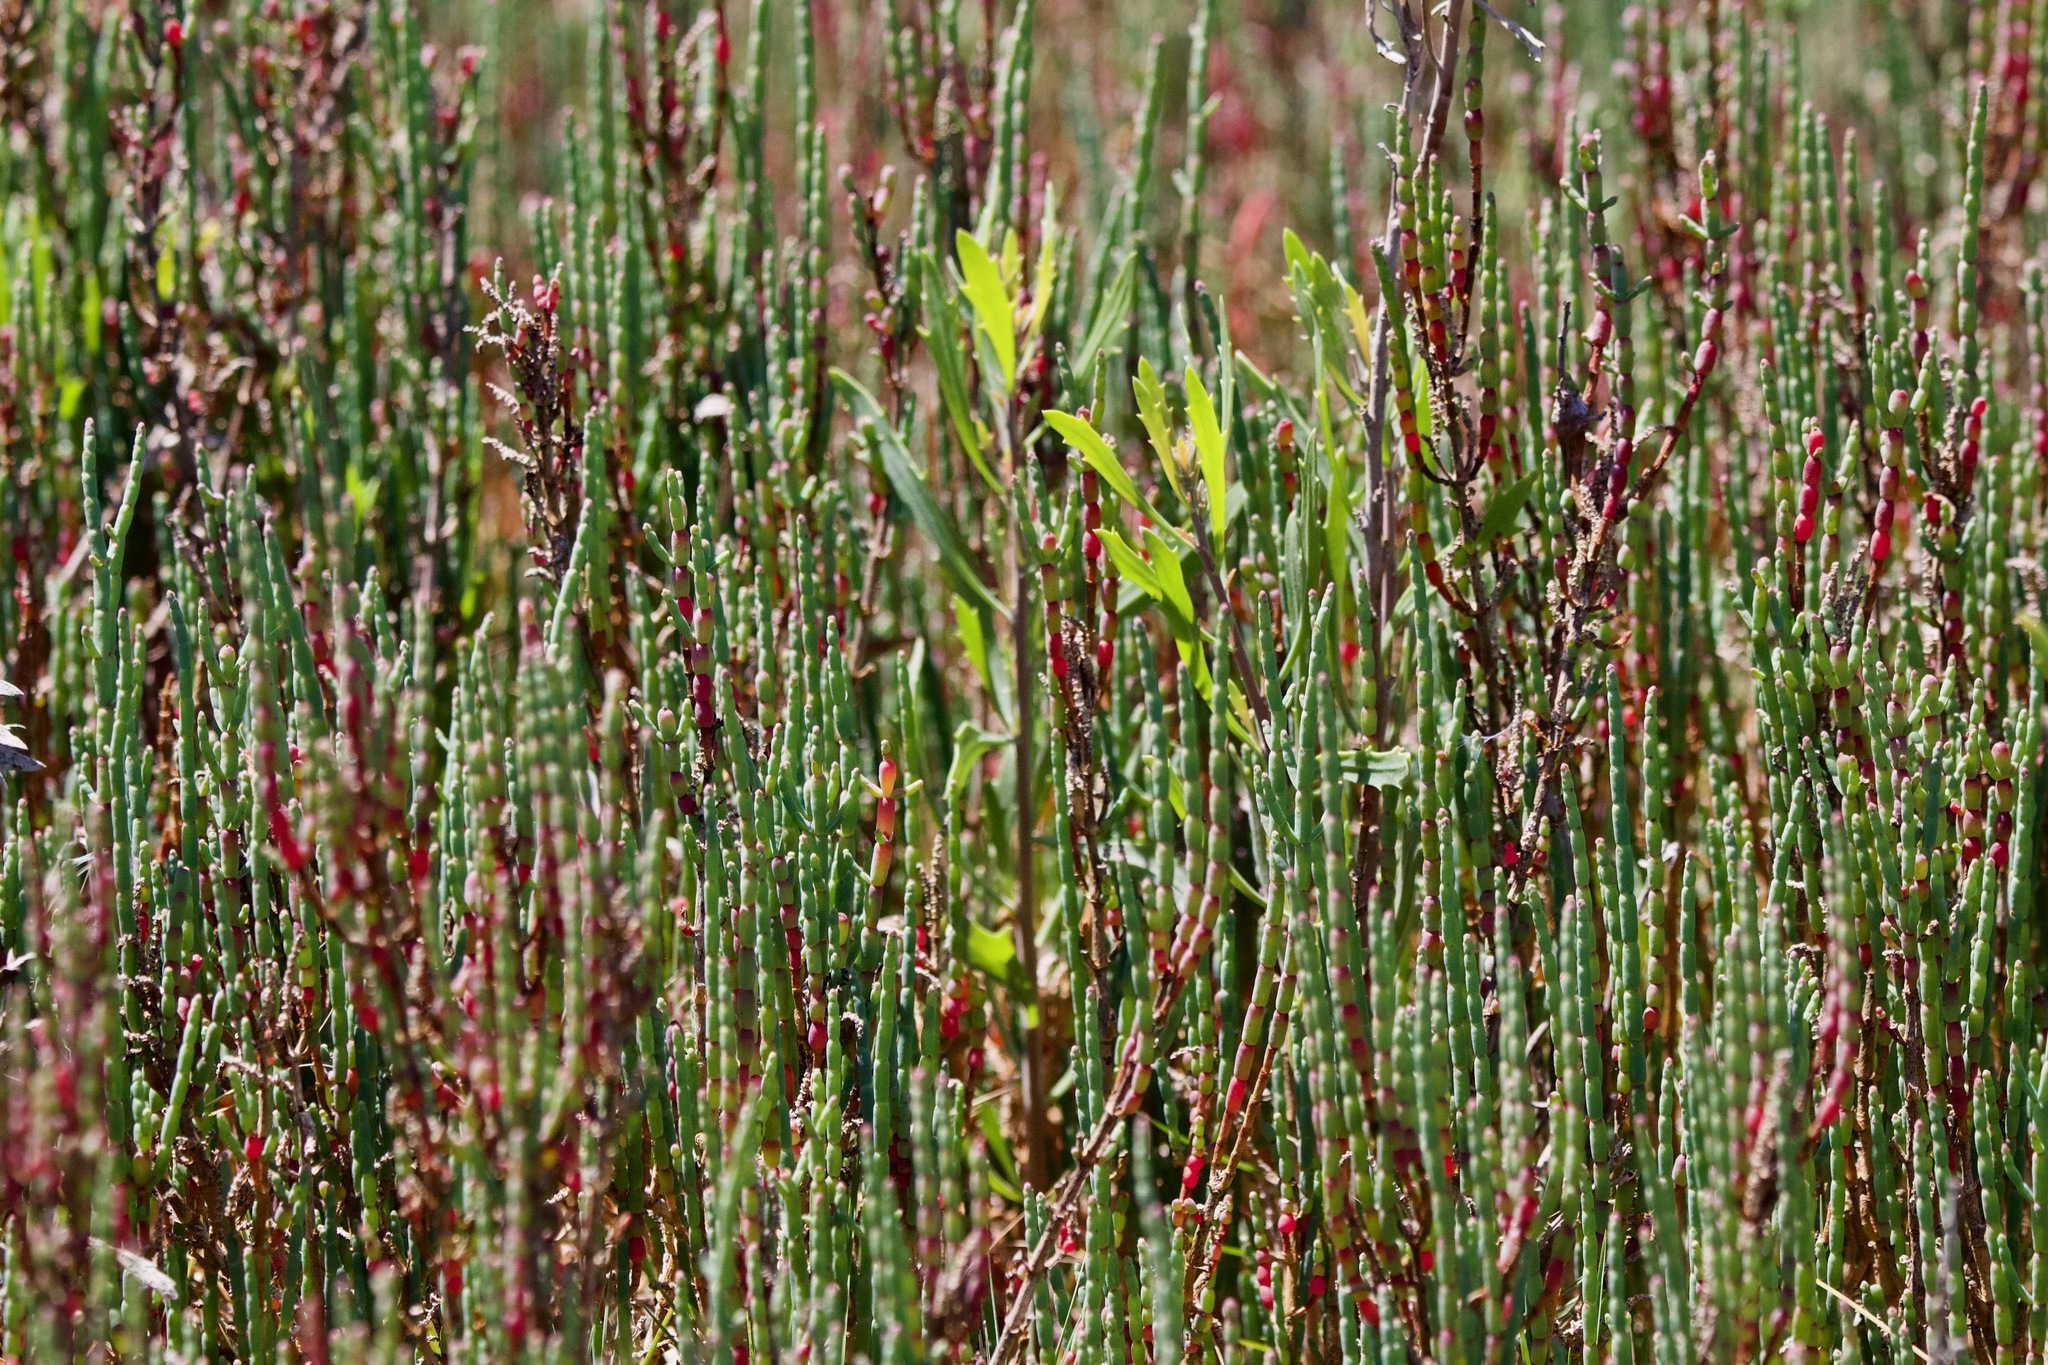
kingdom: Plantae
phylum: Tracheophyta
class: Magnoliopsida
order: Caryophyllales
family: Amaranthaceae
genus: Salicornia
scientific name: Salicornia neei
